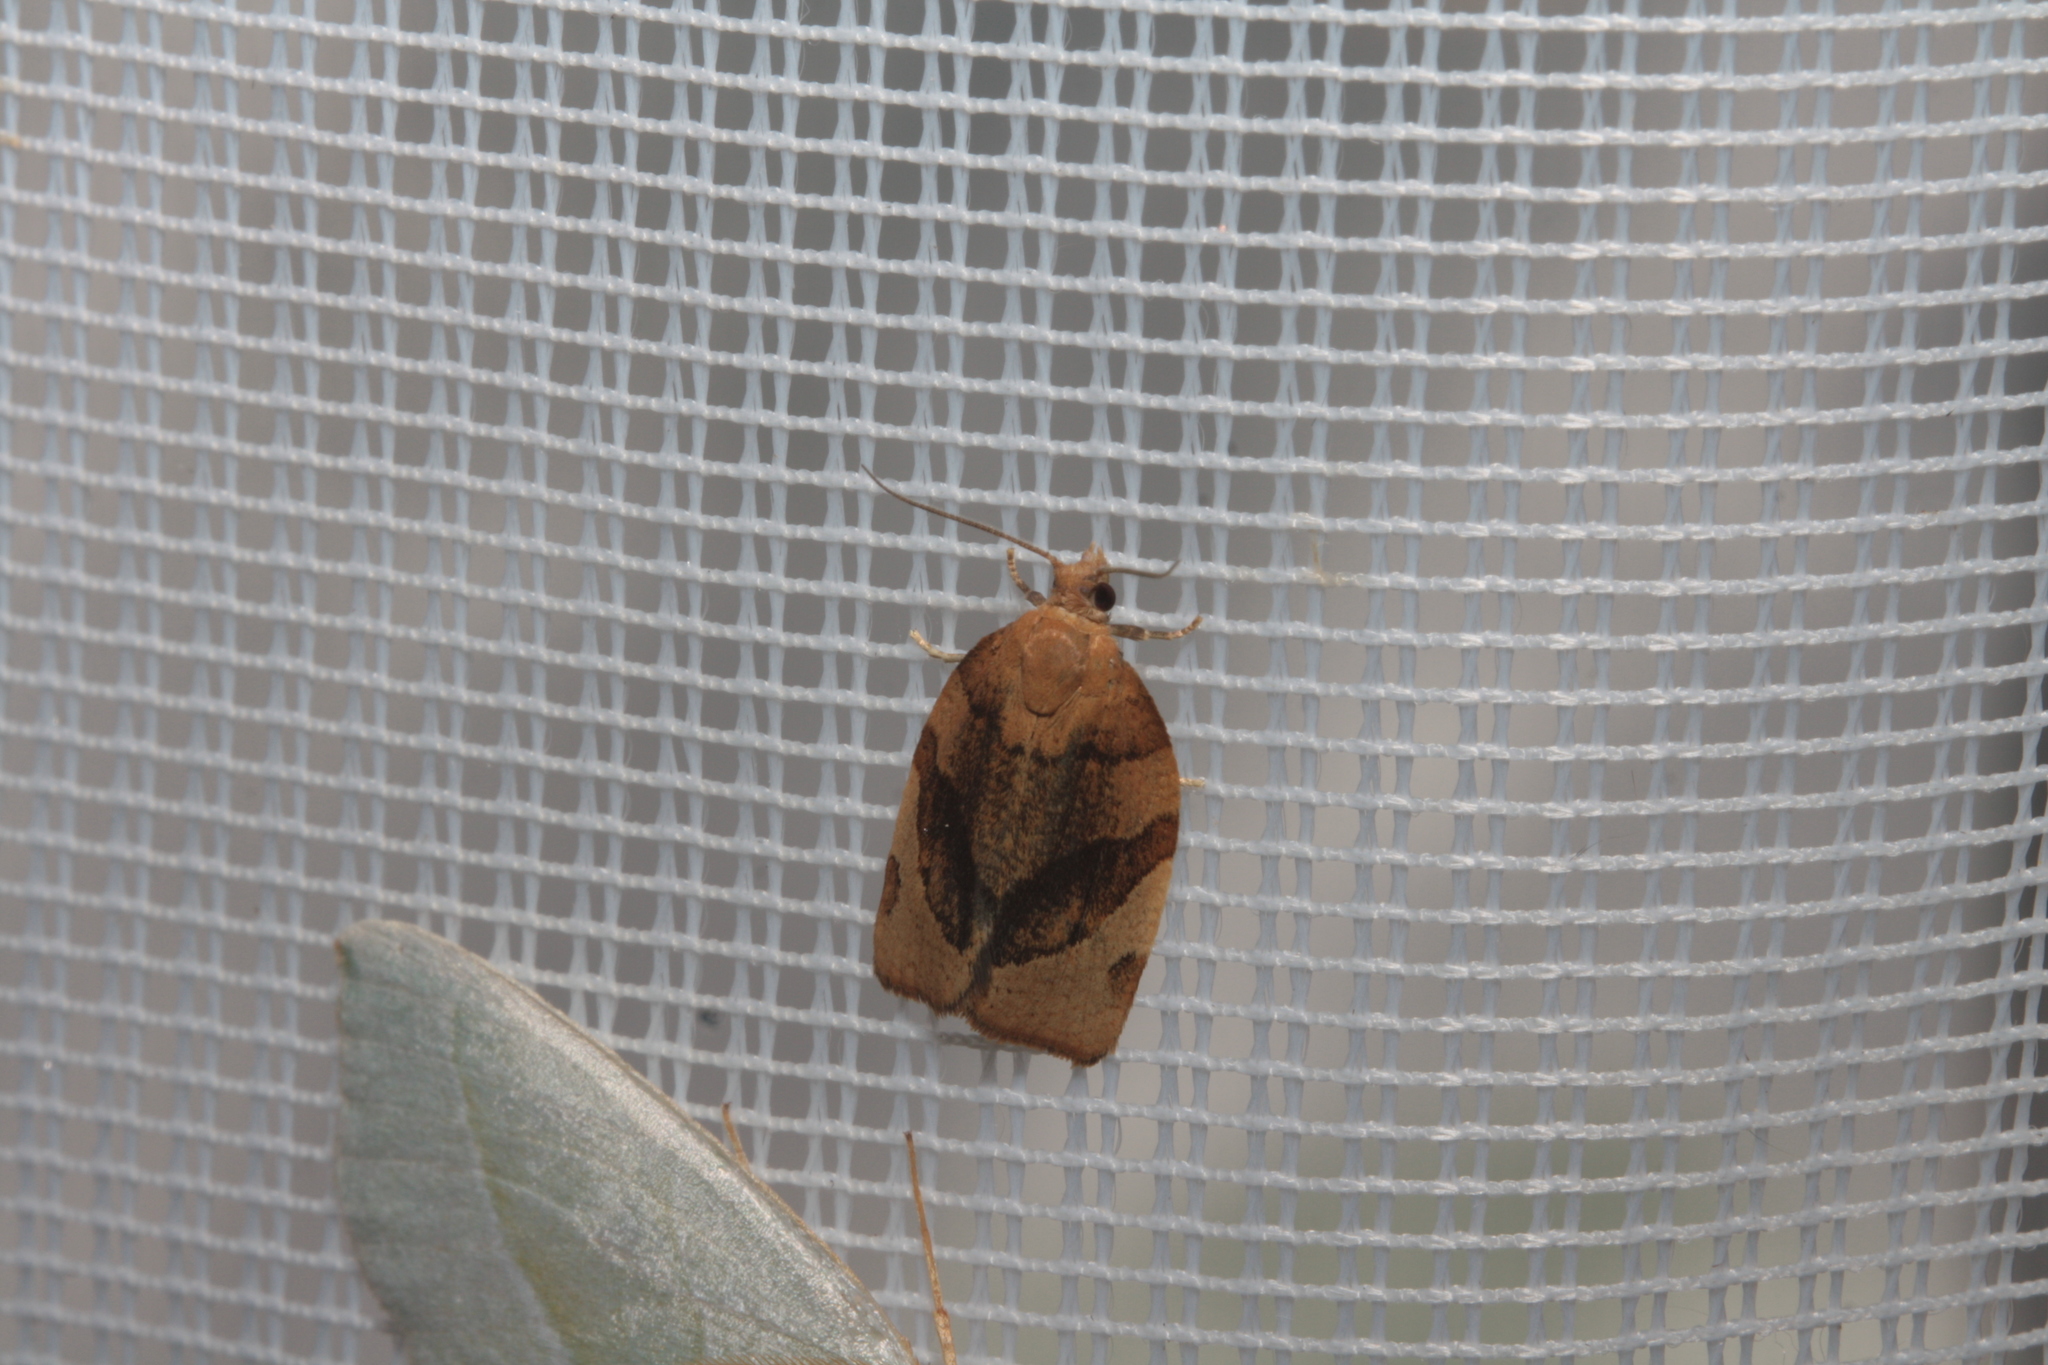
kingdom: Animalia
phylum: Arthropoda
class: Insecta
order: Lepidoptera
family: Tortricidae
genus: Pandemis
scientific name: Pandemis cerasana
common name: Barred fruit-tree tortrix
